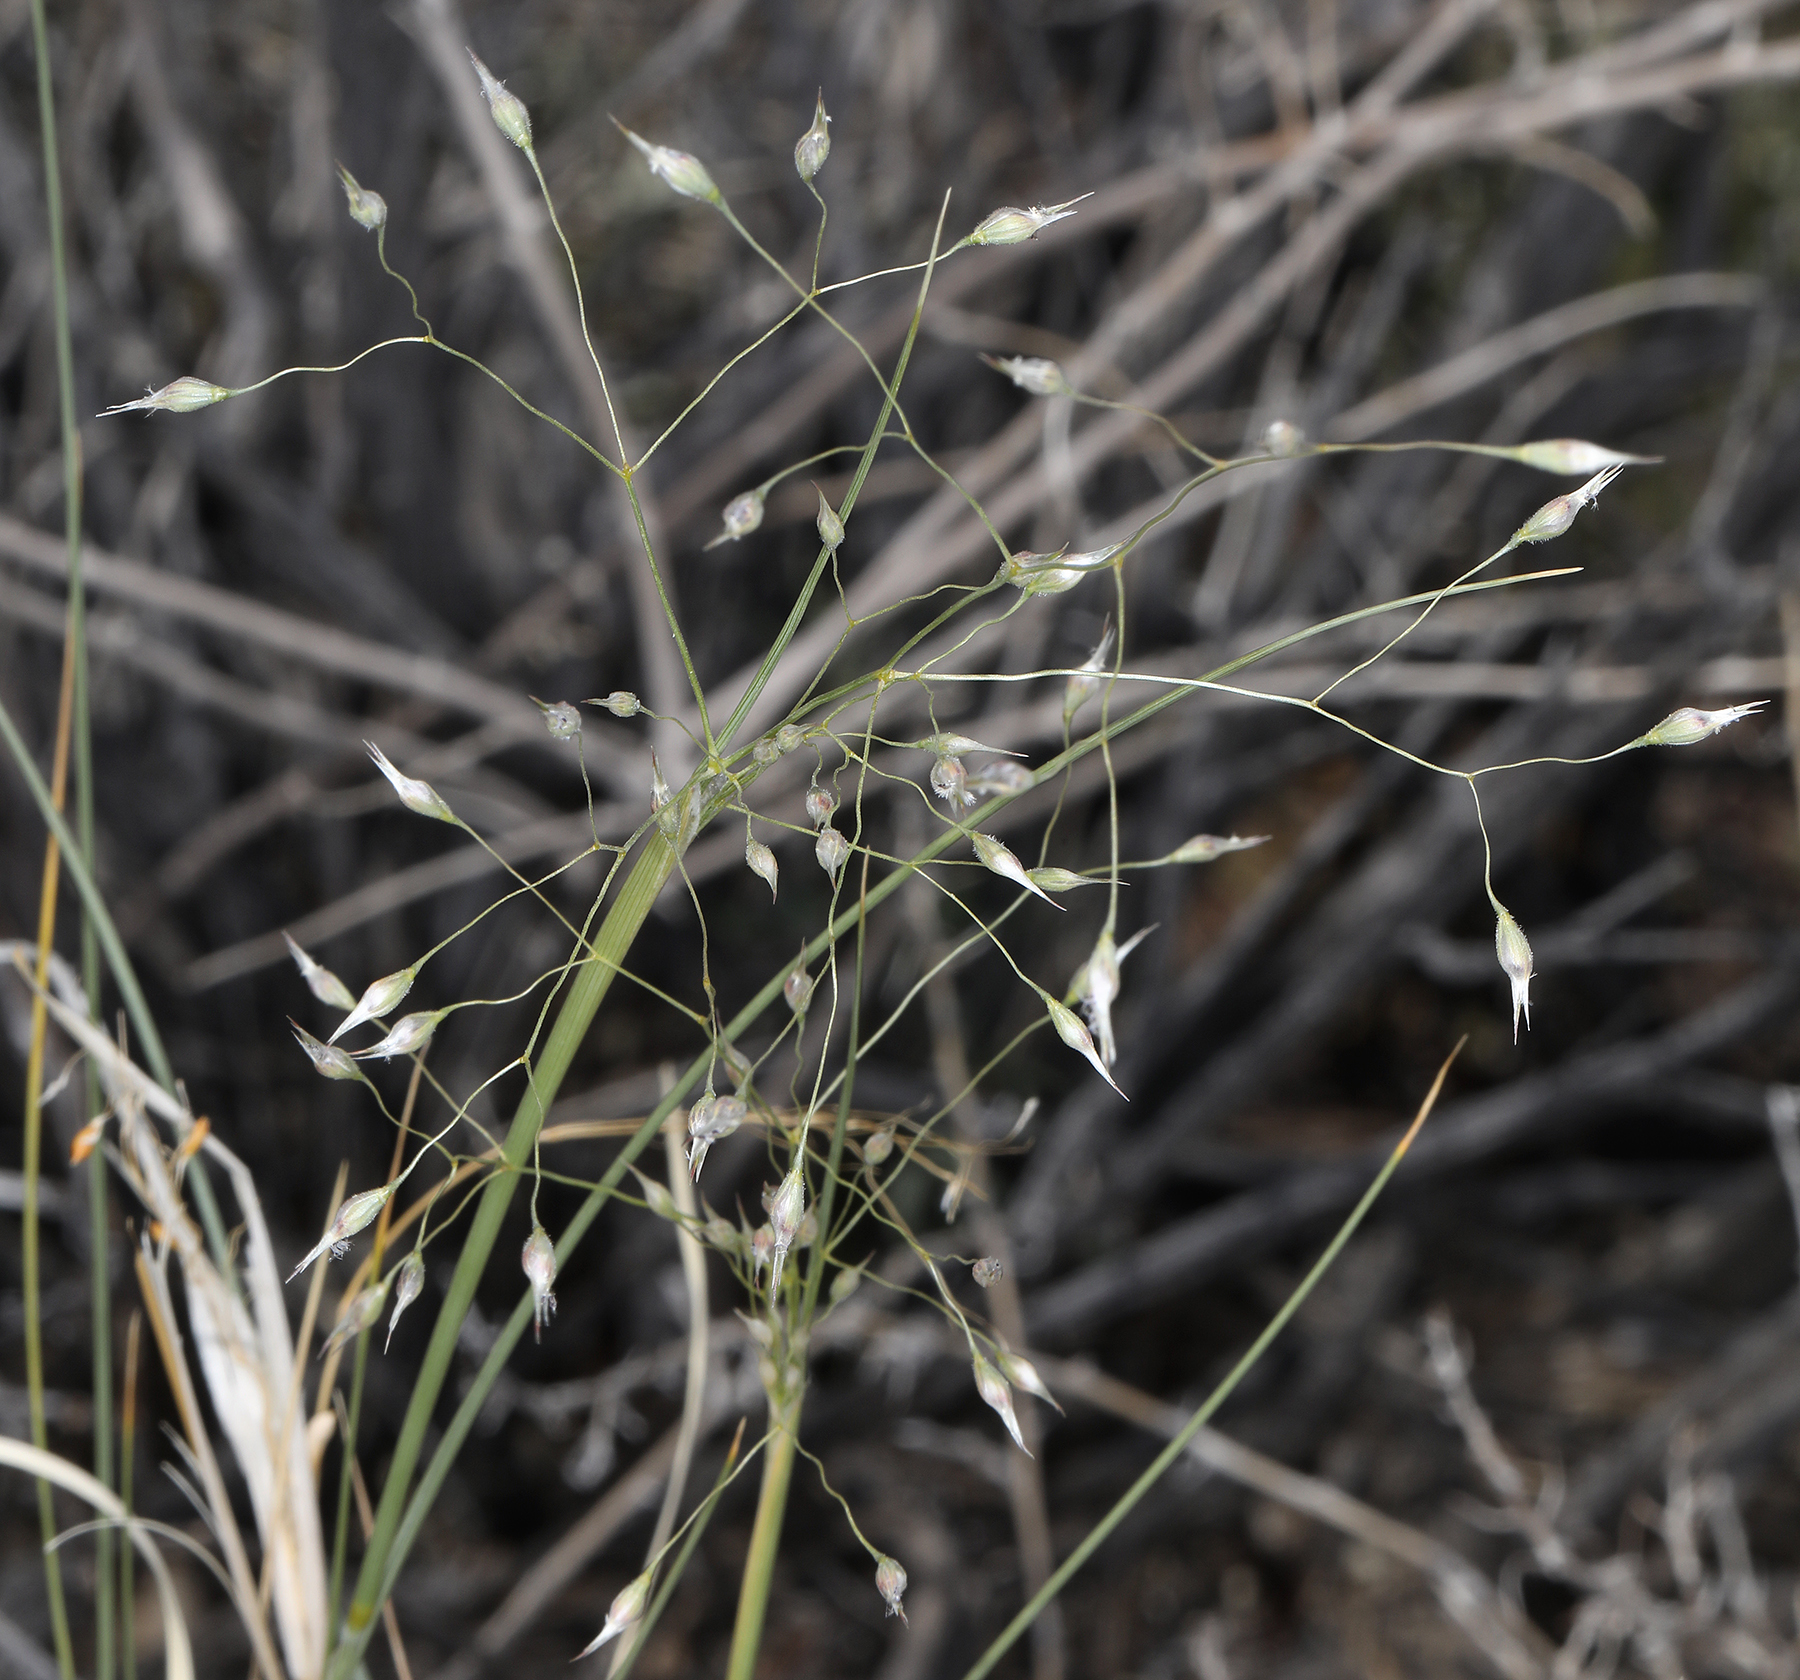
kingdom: Plantae
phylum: Tracheophyta
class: Liliopsida
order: Poales
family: Poaceae
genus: Eriocoma
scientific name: Eriocoma hymenoides
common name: Indian mountain ricegrass
